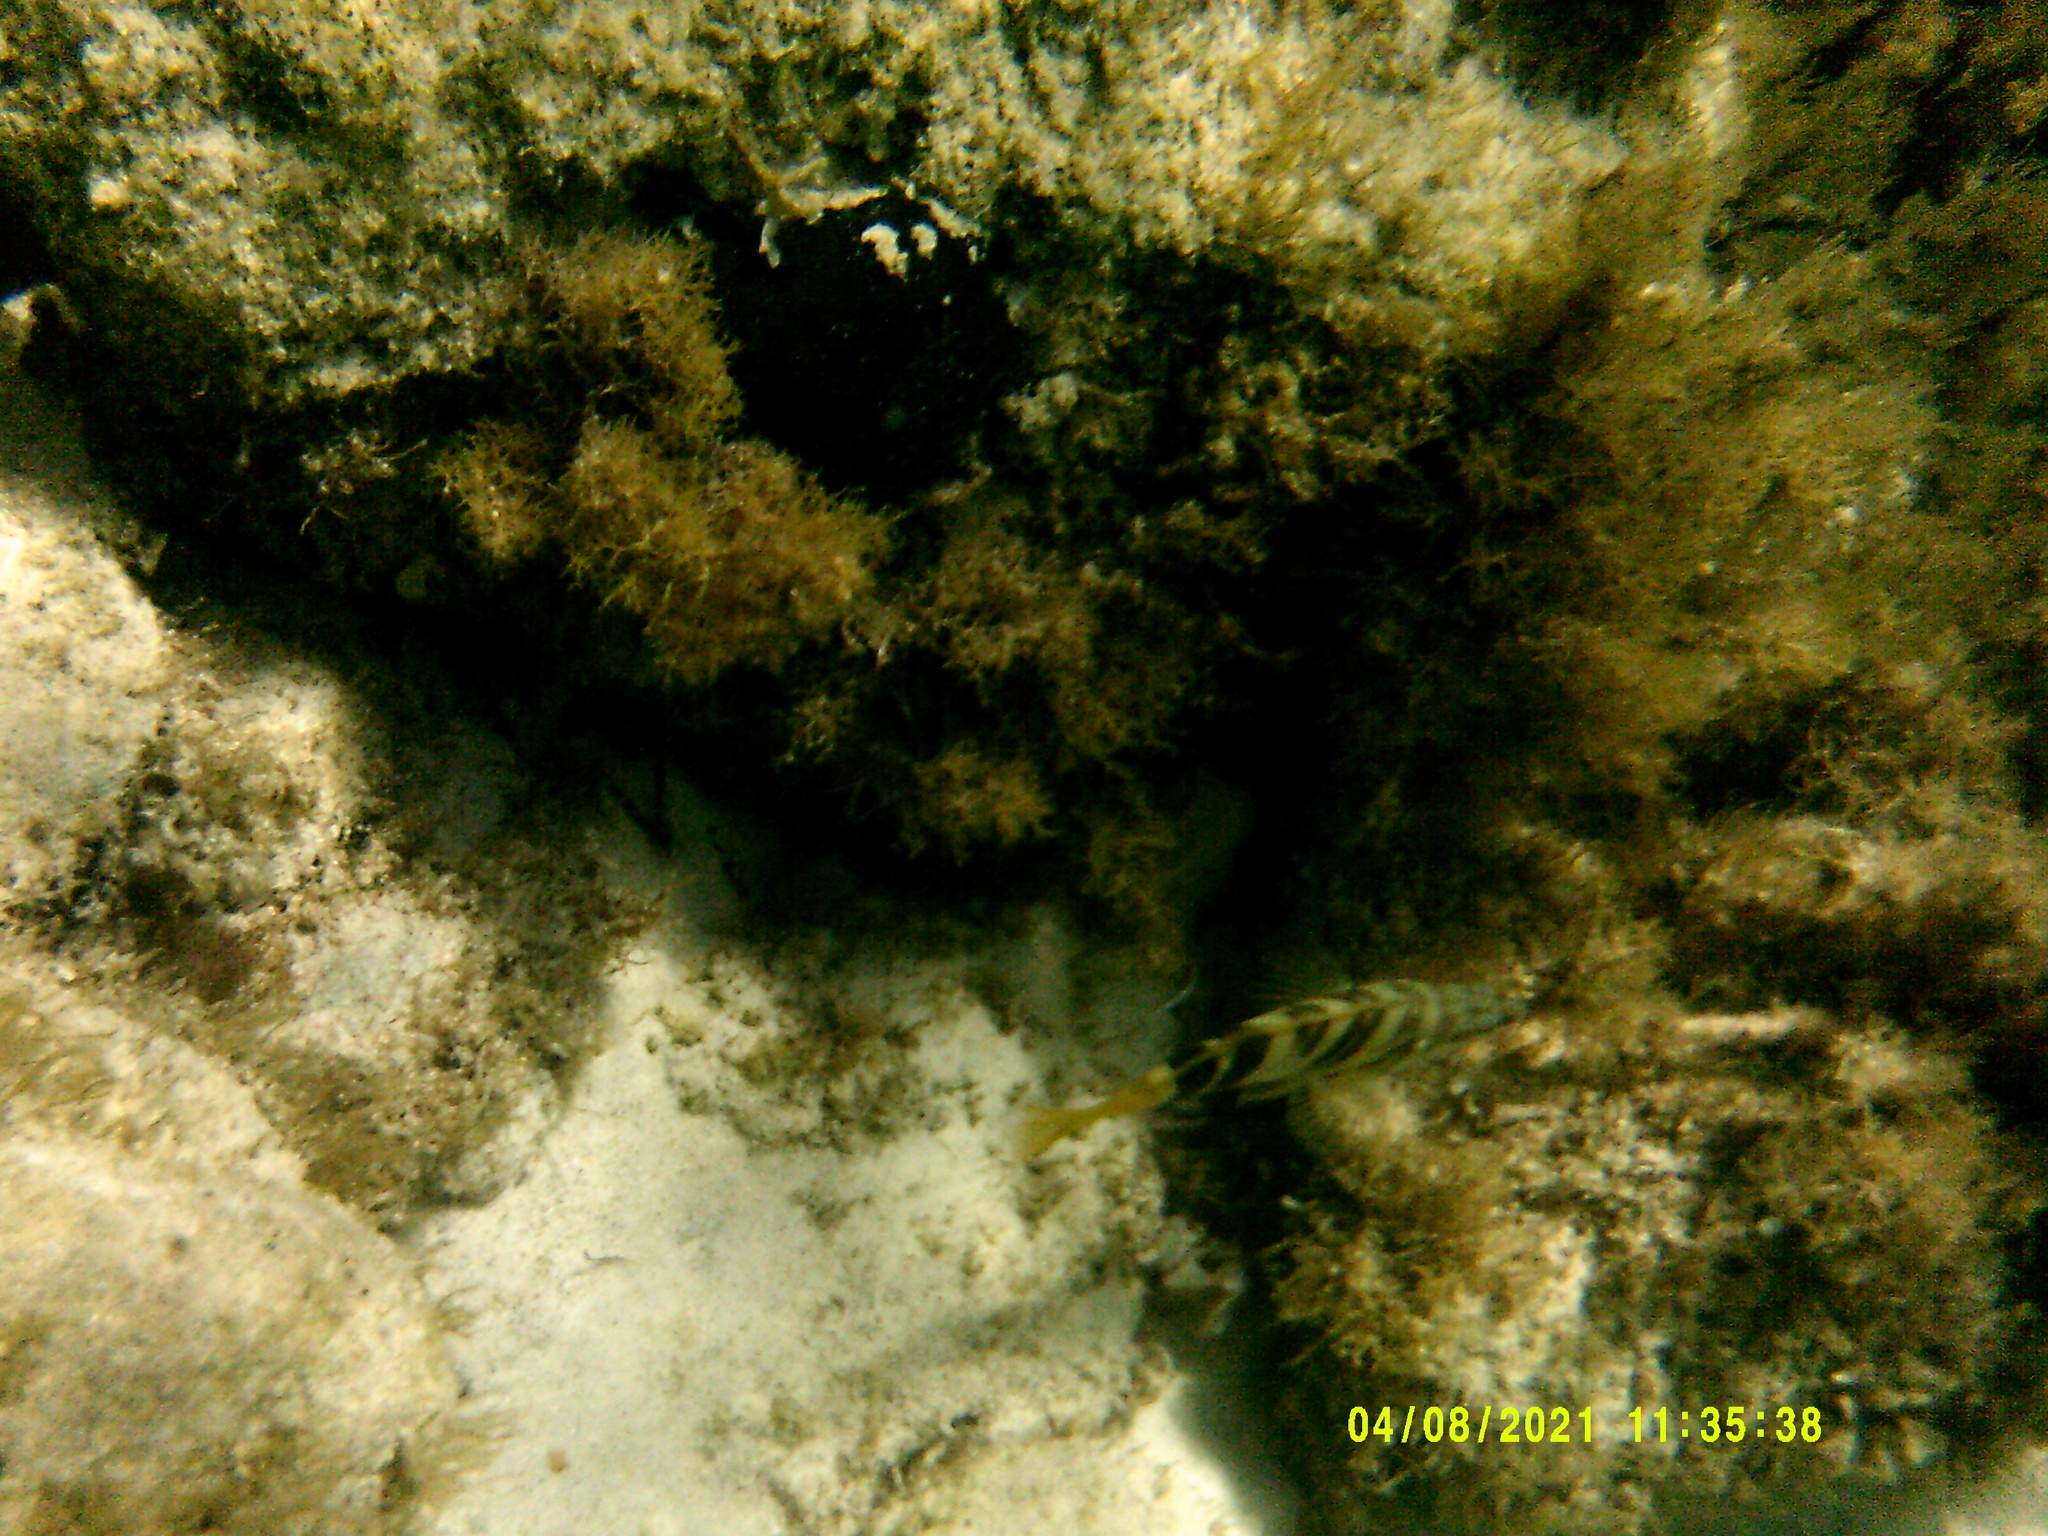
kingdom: Animalia
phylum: Chordata
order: Perciformes
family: Serranidae
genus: Serranus
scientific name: Serranus scriba
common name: Painted comber
